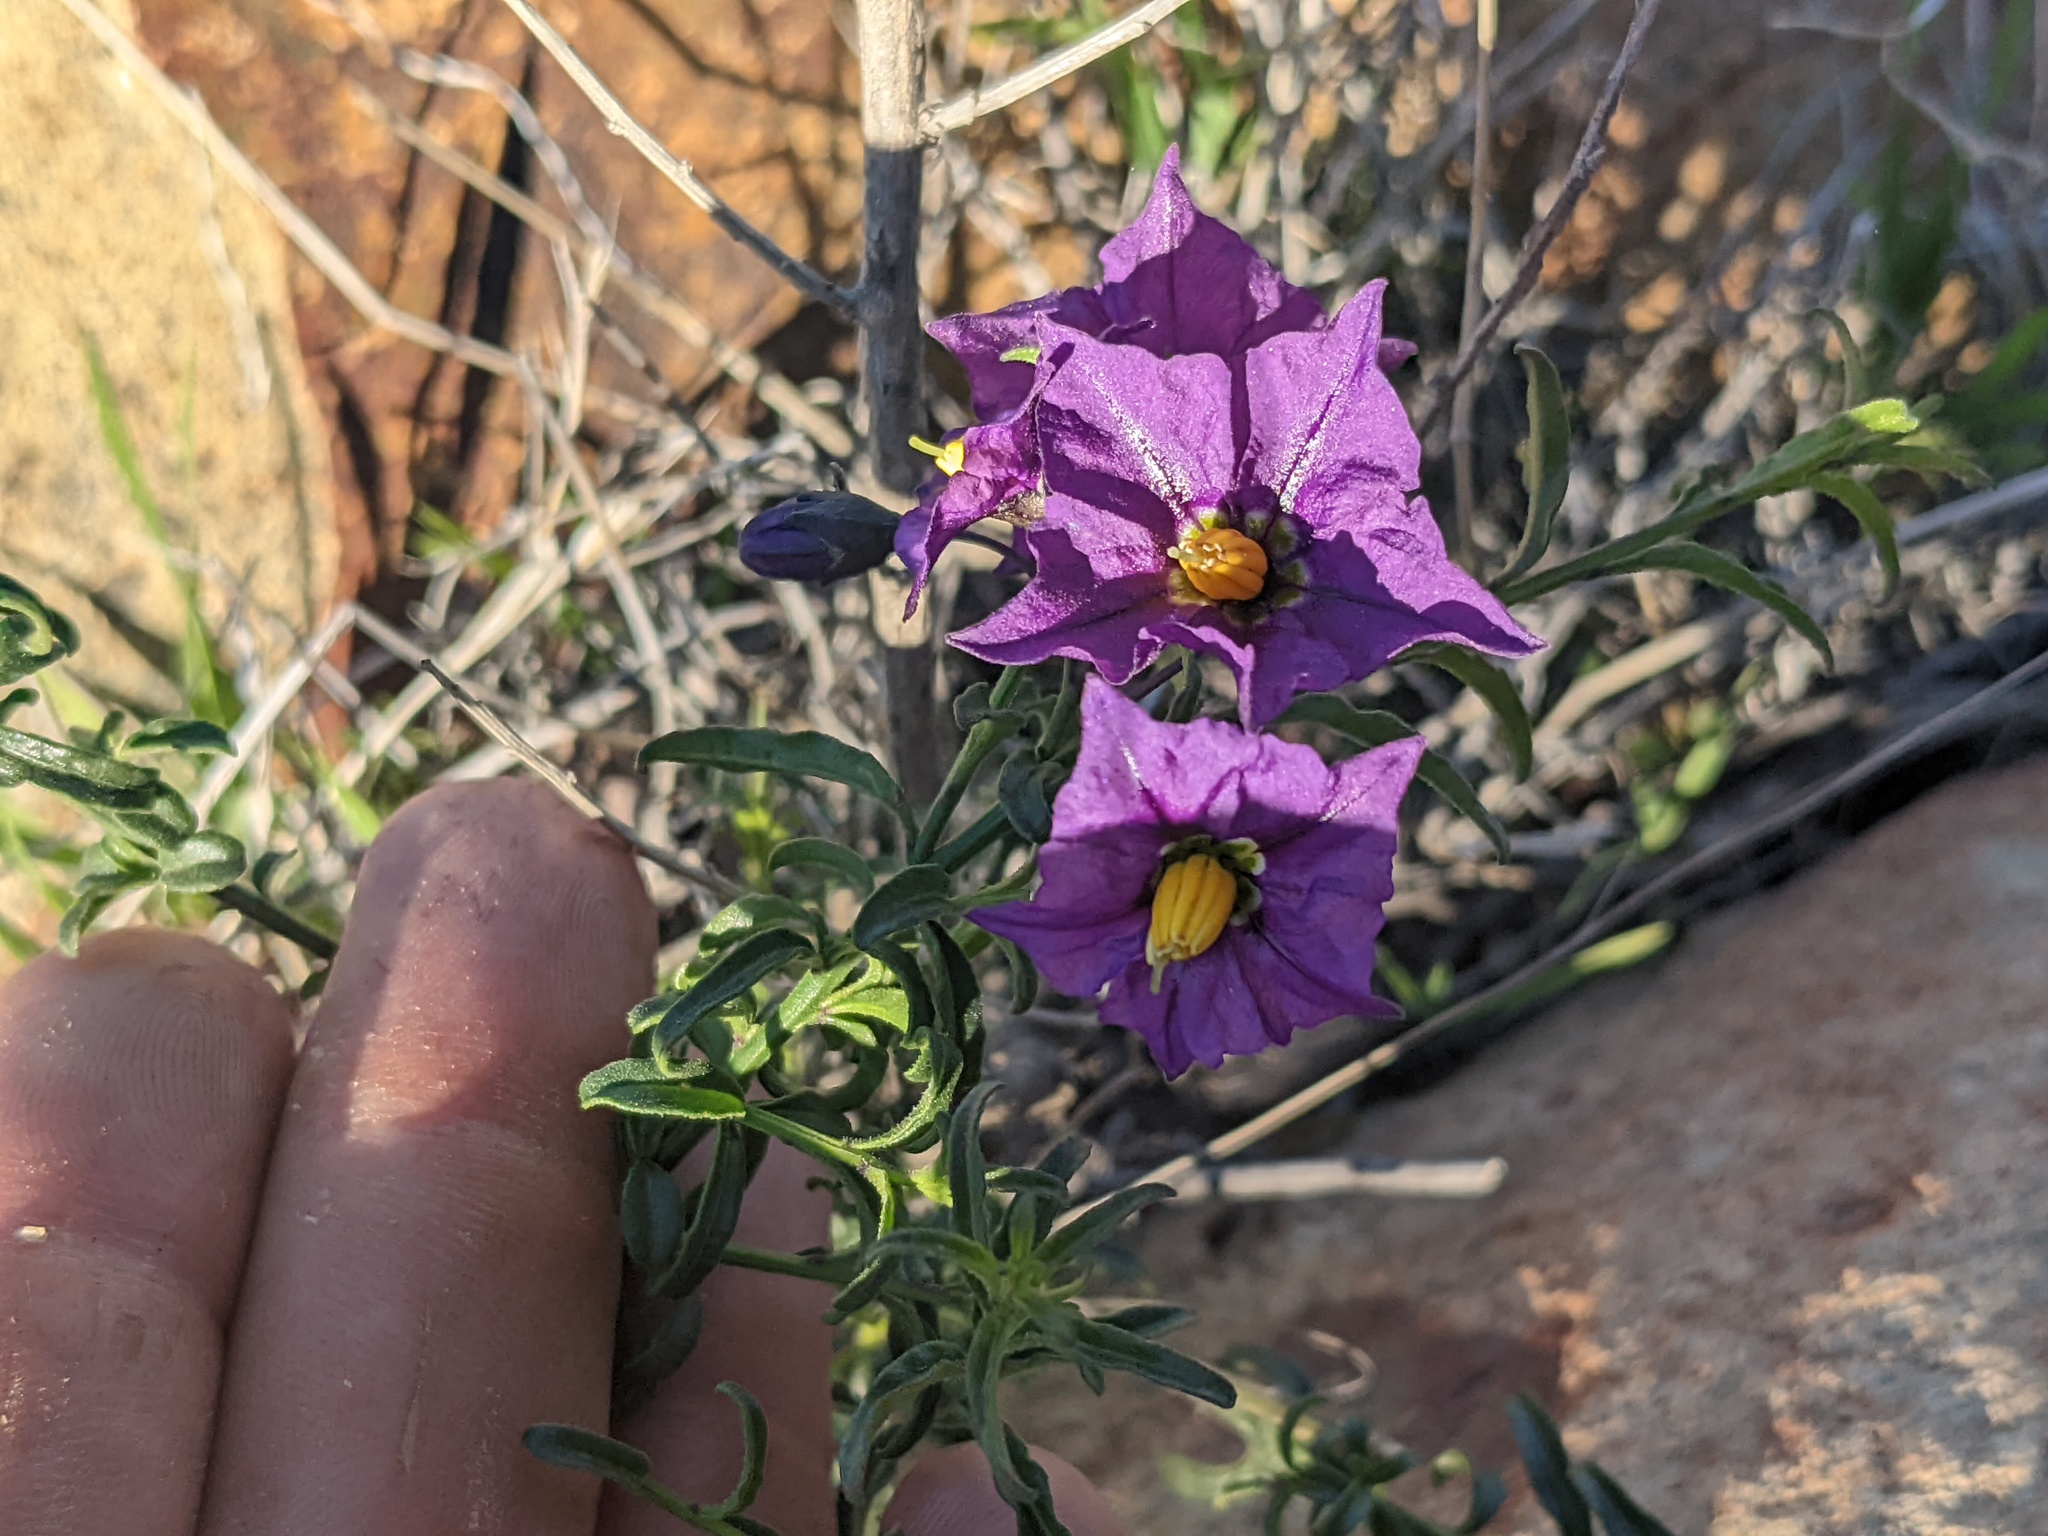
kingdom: Plantae
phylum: Tracheophyta
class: Magnoliopsida
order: Solanales
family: Solanaceae
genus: Solanum
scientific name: Solanum umbelliferum
